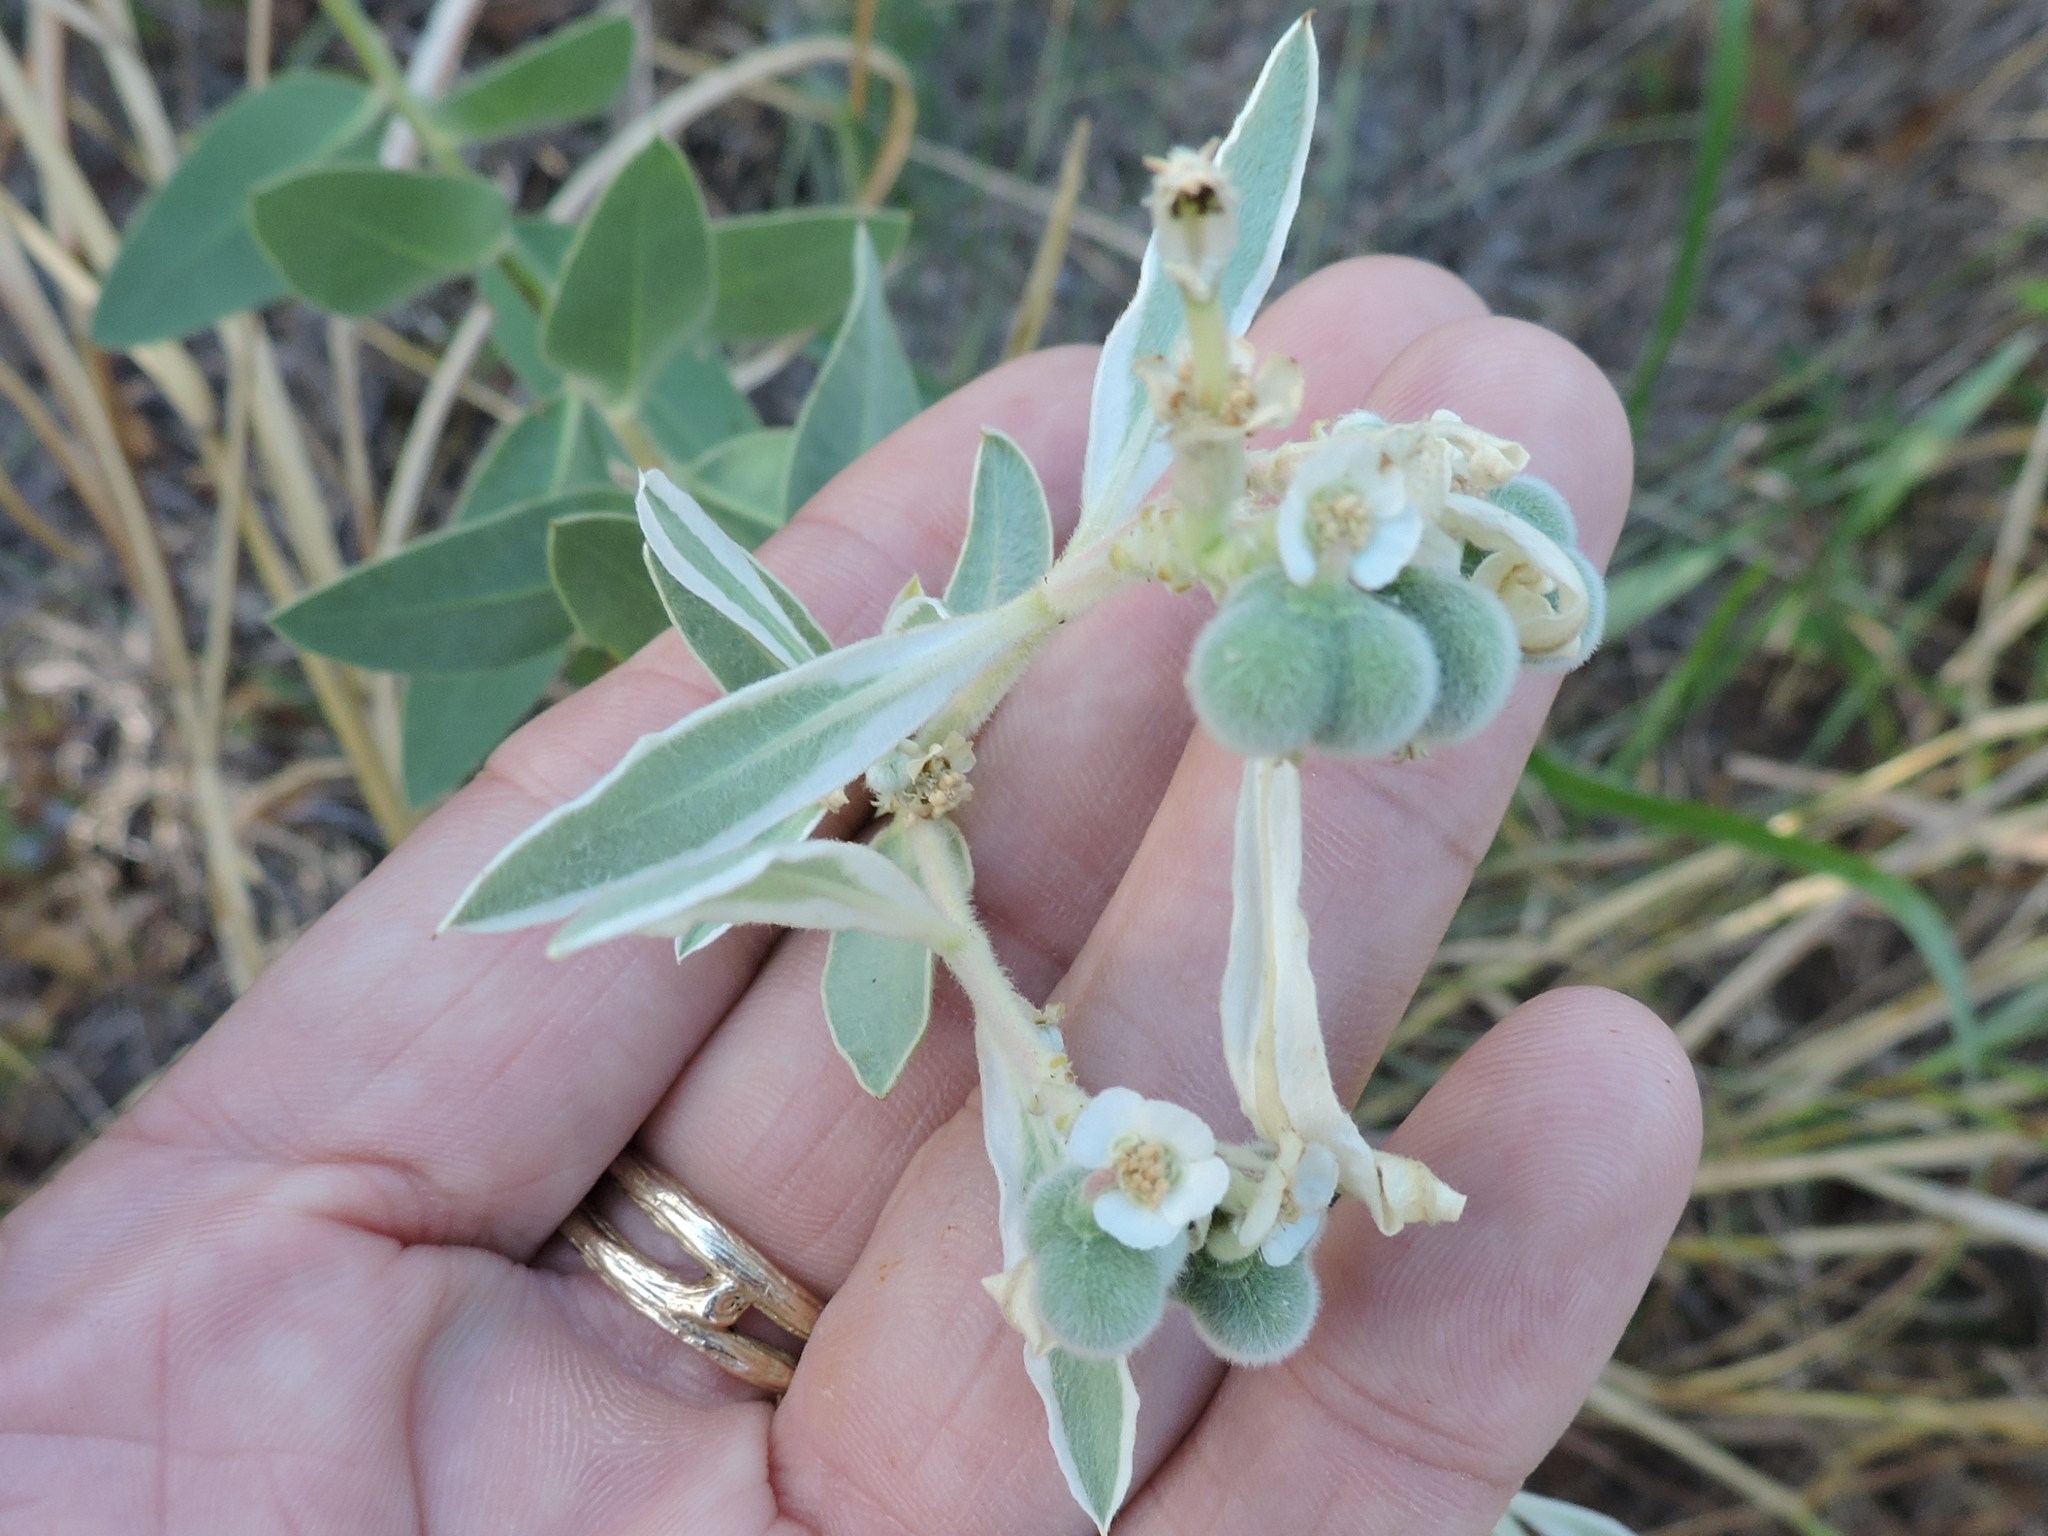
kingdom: Plantae
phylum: Tracheophyta
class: Magnoliopsida
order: Malpighiales
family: Euphorbiaceae
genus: Euphorbia
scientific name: Euphorbia bicolor
